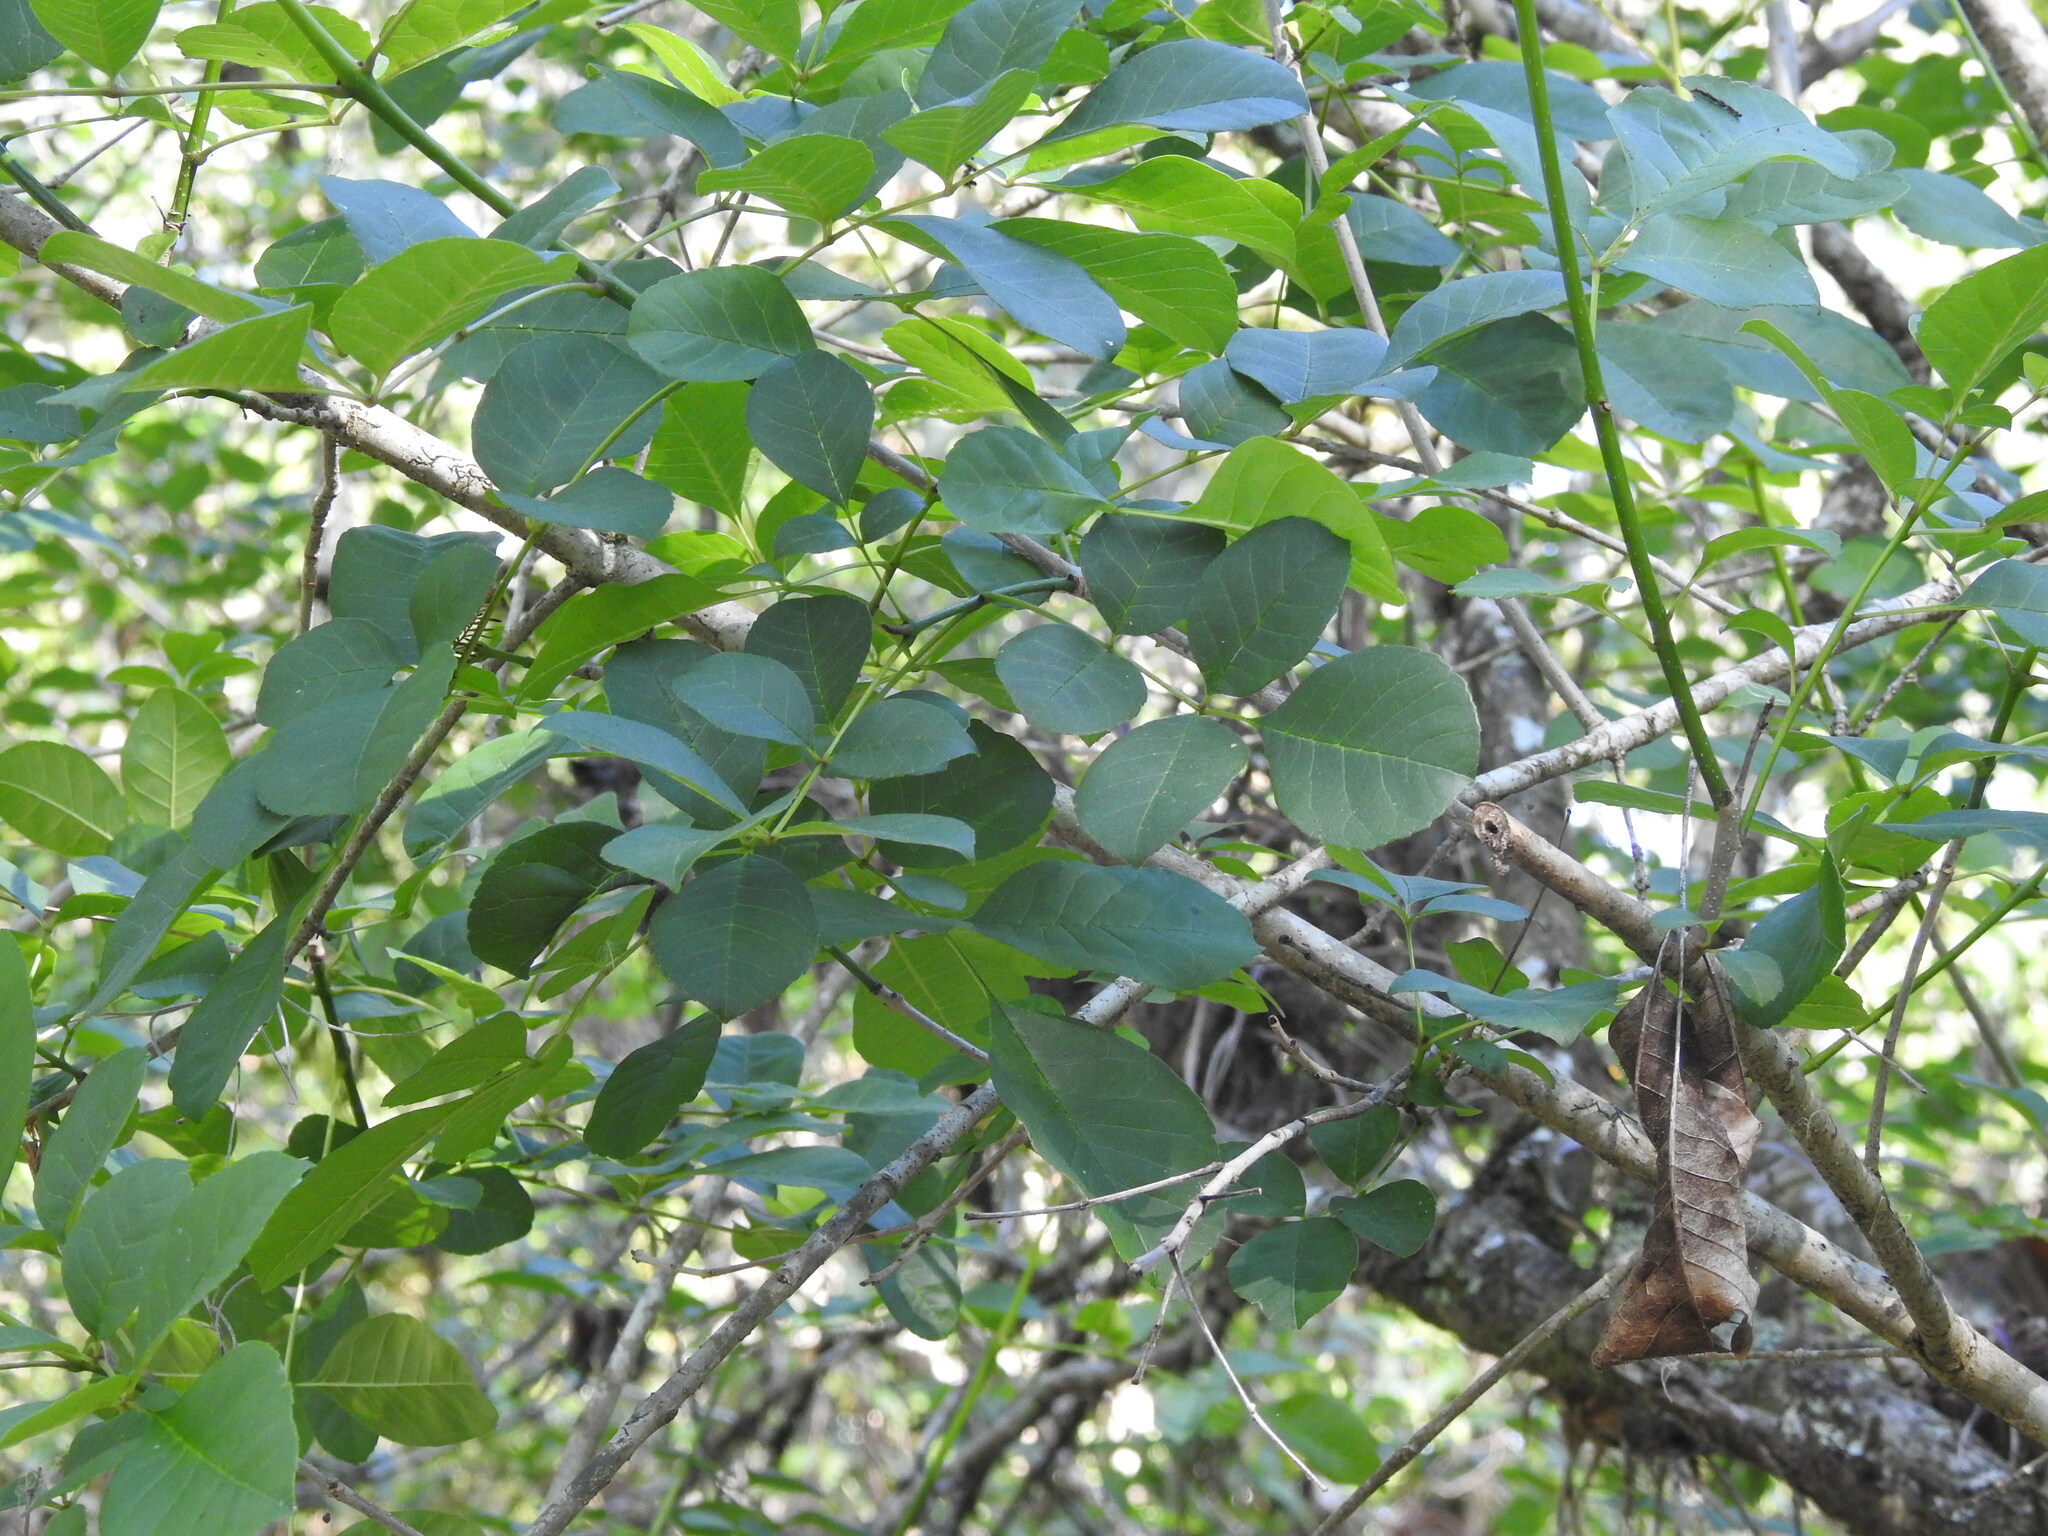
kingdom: Plantae
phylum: Tracheophyta
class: Magnoliopsida
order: Lamiales
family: Oleaceae
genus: Fraxinus
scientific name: Fraxinus caroliniana
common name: Carolina ash
